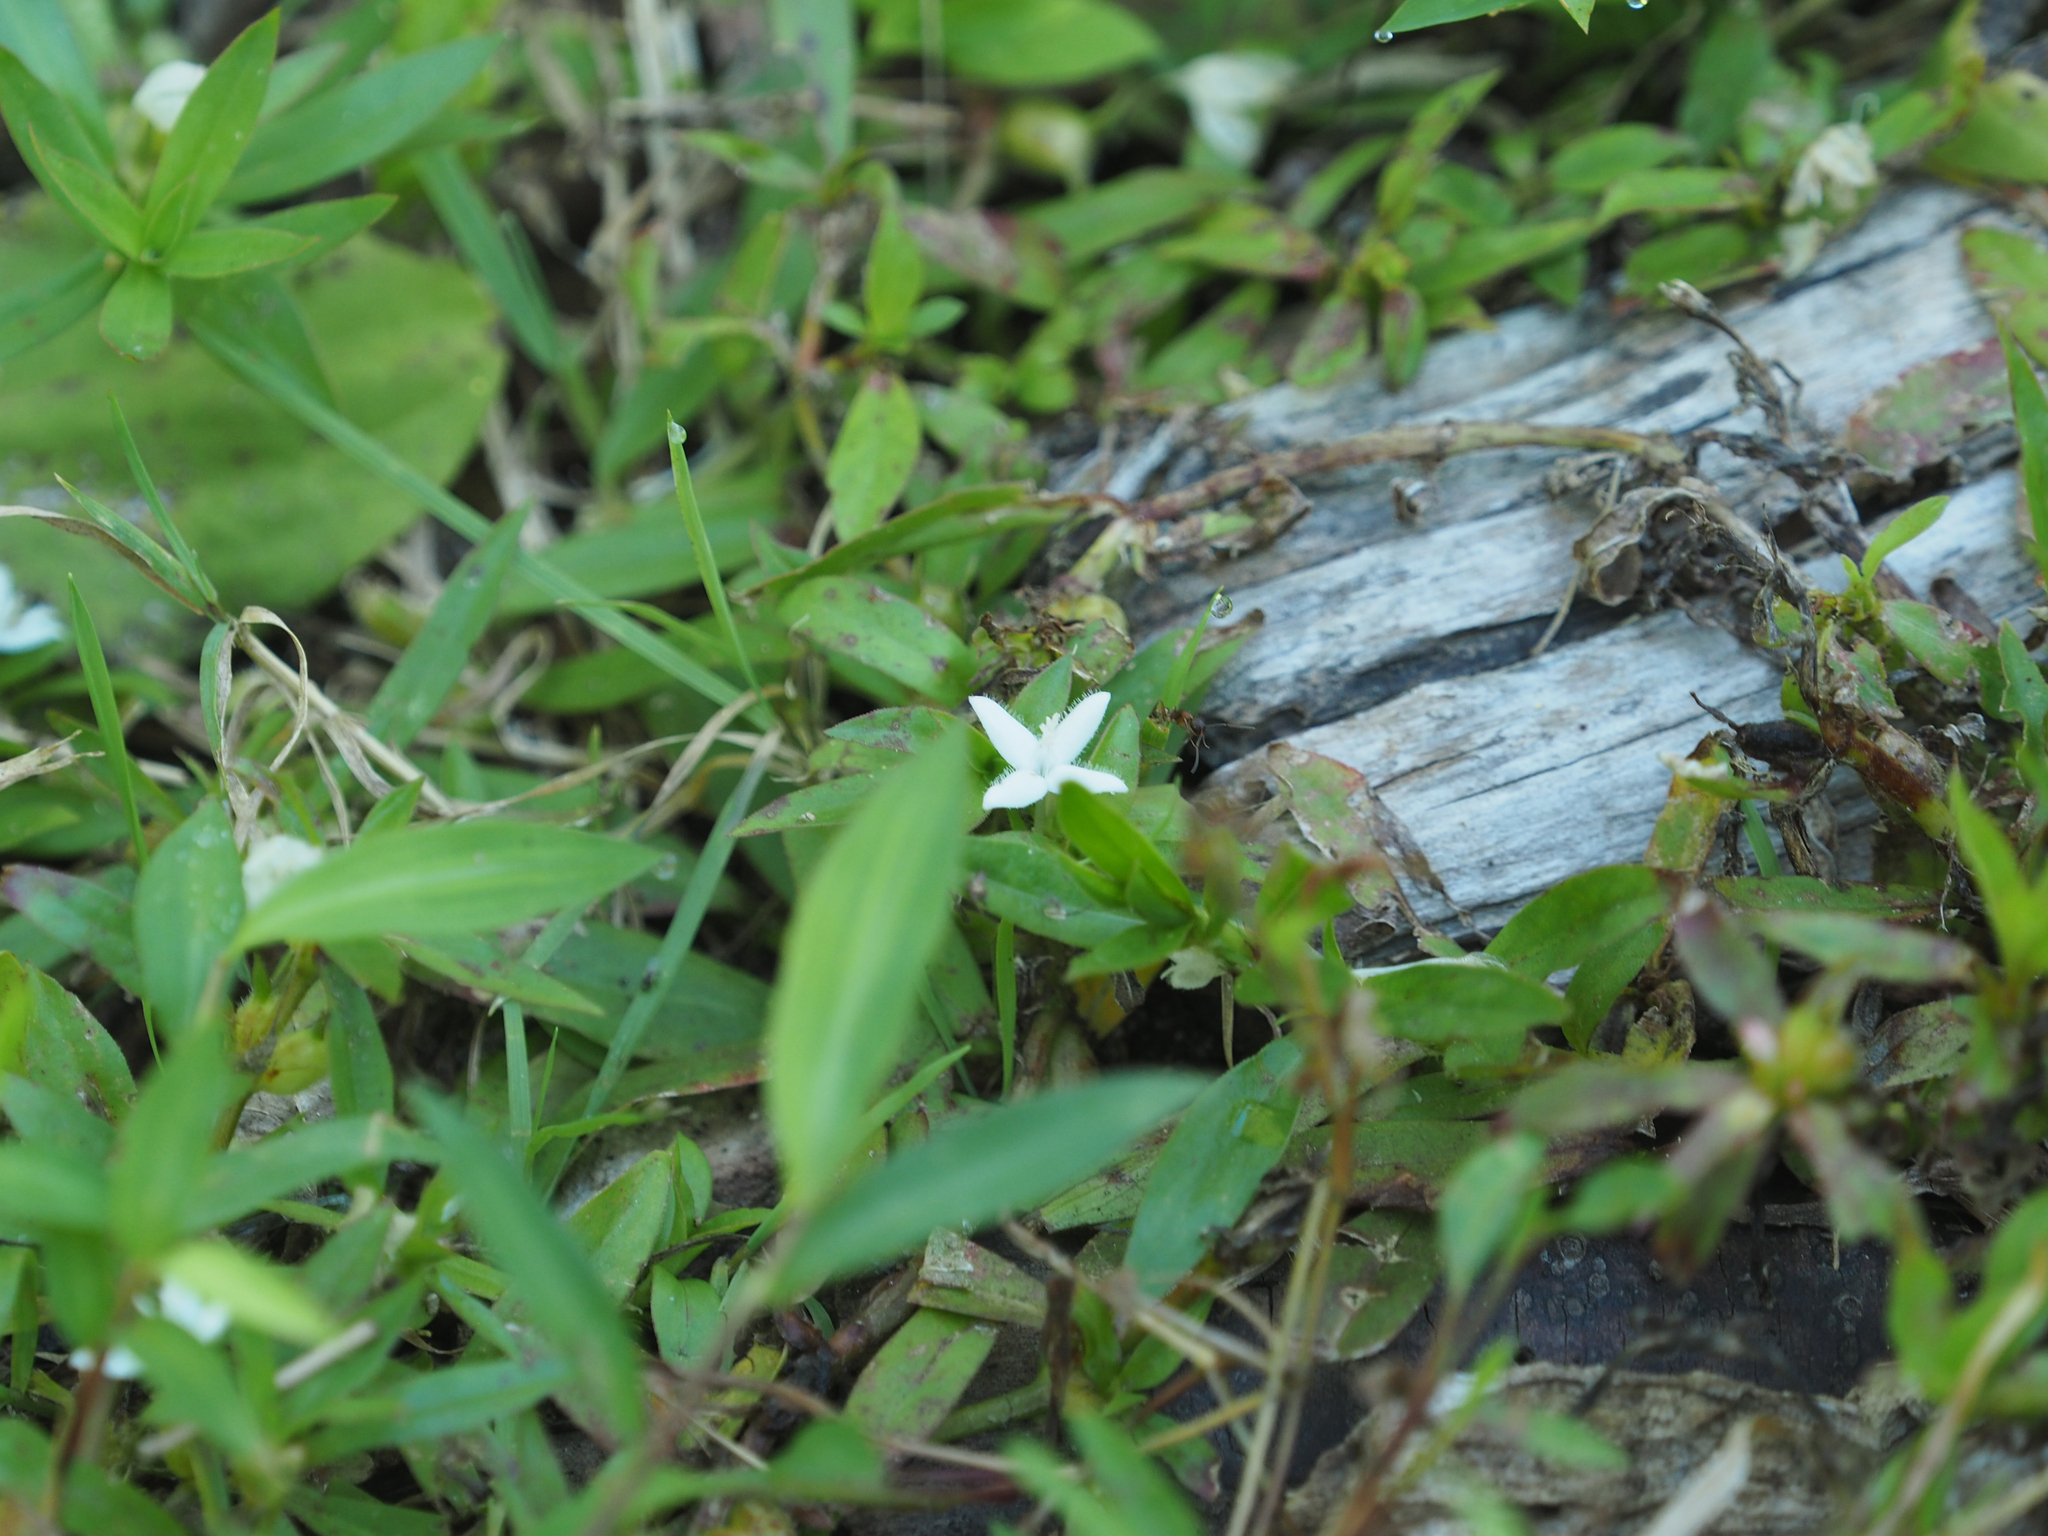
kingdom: Plantae
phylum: Tracheophyta
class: Magnoliopsida
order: Gentianales
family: Rubiaceae
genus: Diodia
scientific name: Diodia virginiana
